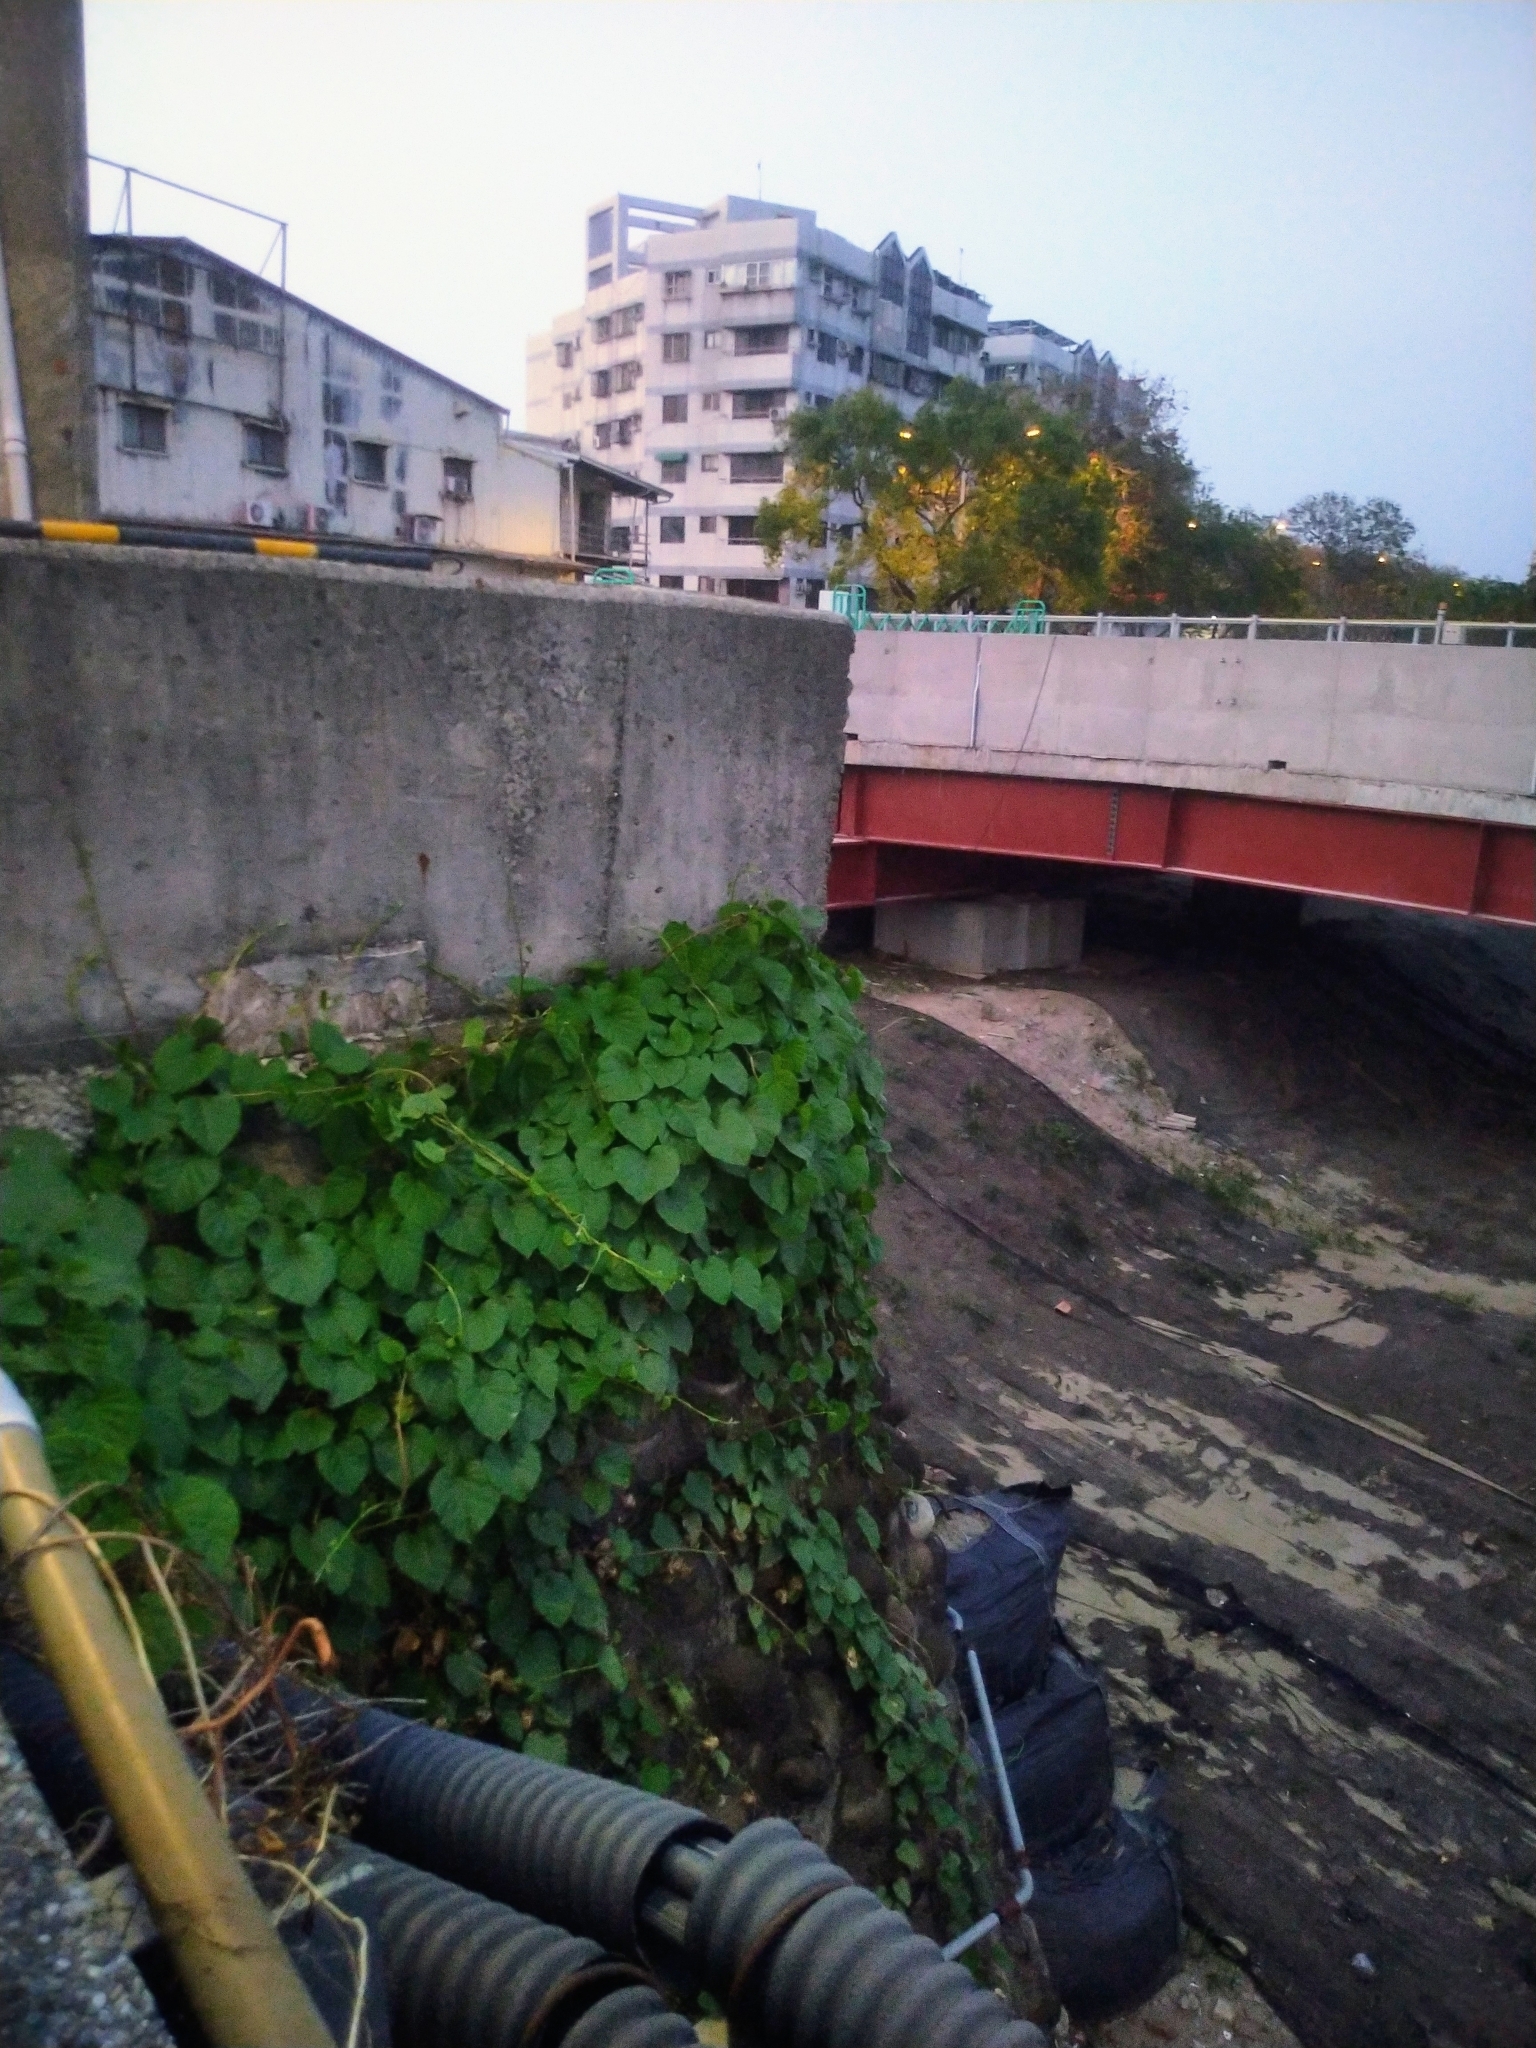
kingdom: Plantae
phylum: Tracheophyta
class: Magnoliopsida
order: Solanales
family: Convolvulaceae
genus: Operculina
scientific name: Operculina turpethum
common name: Transparent wood-rose
